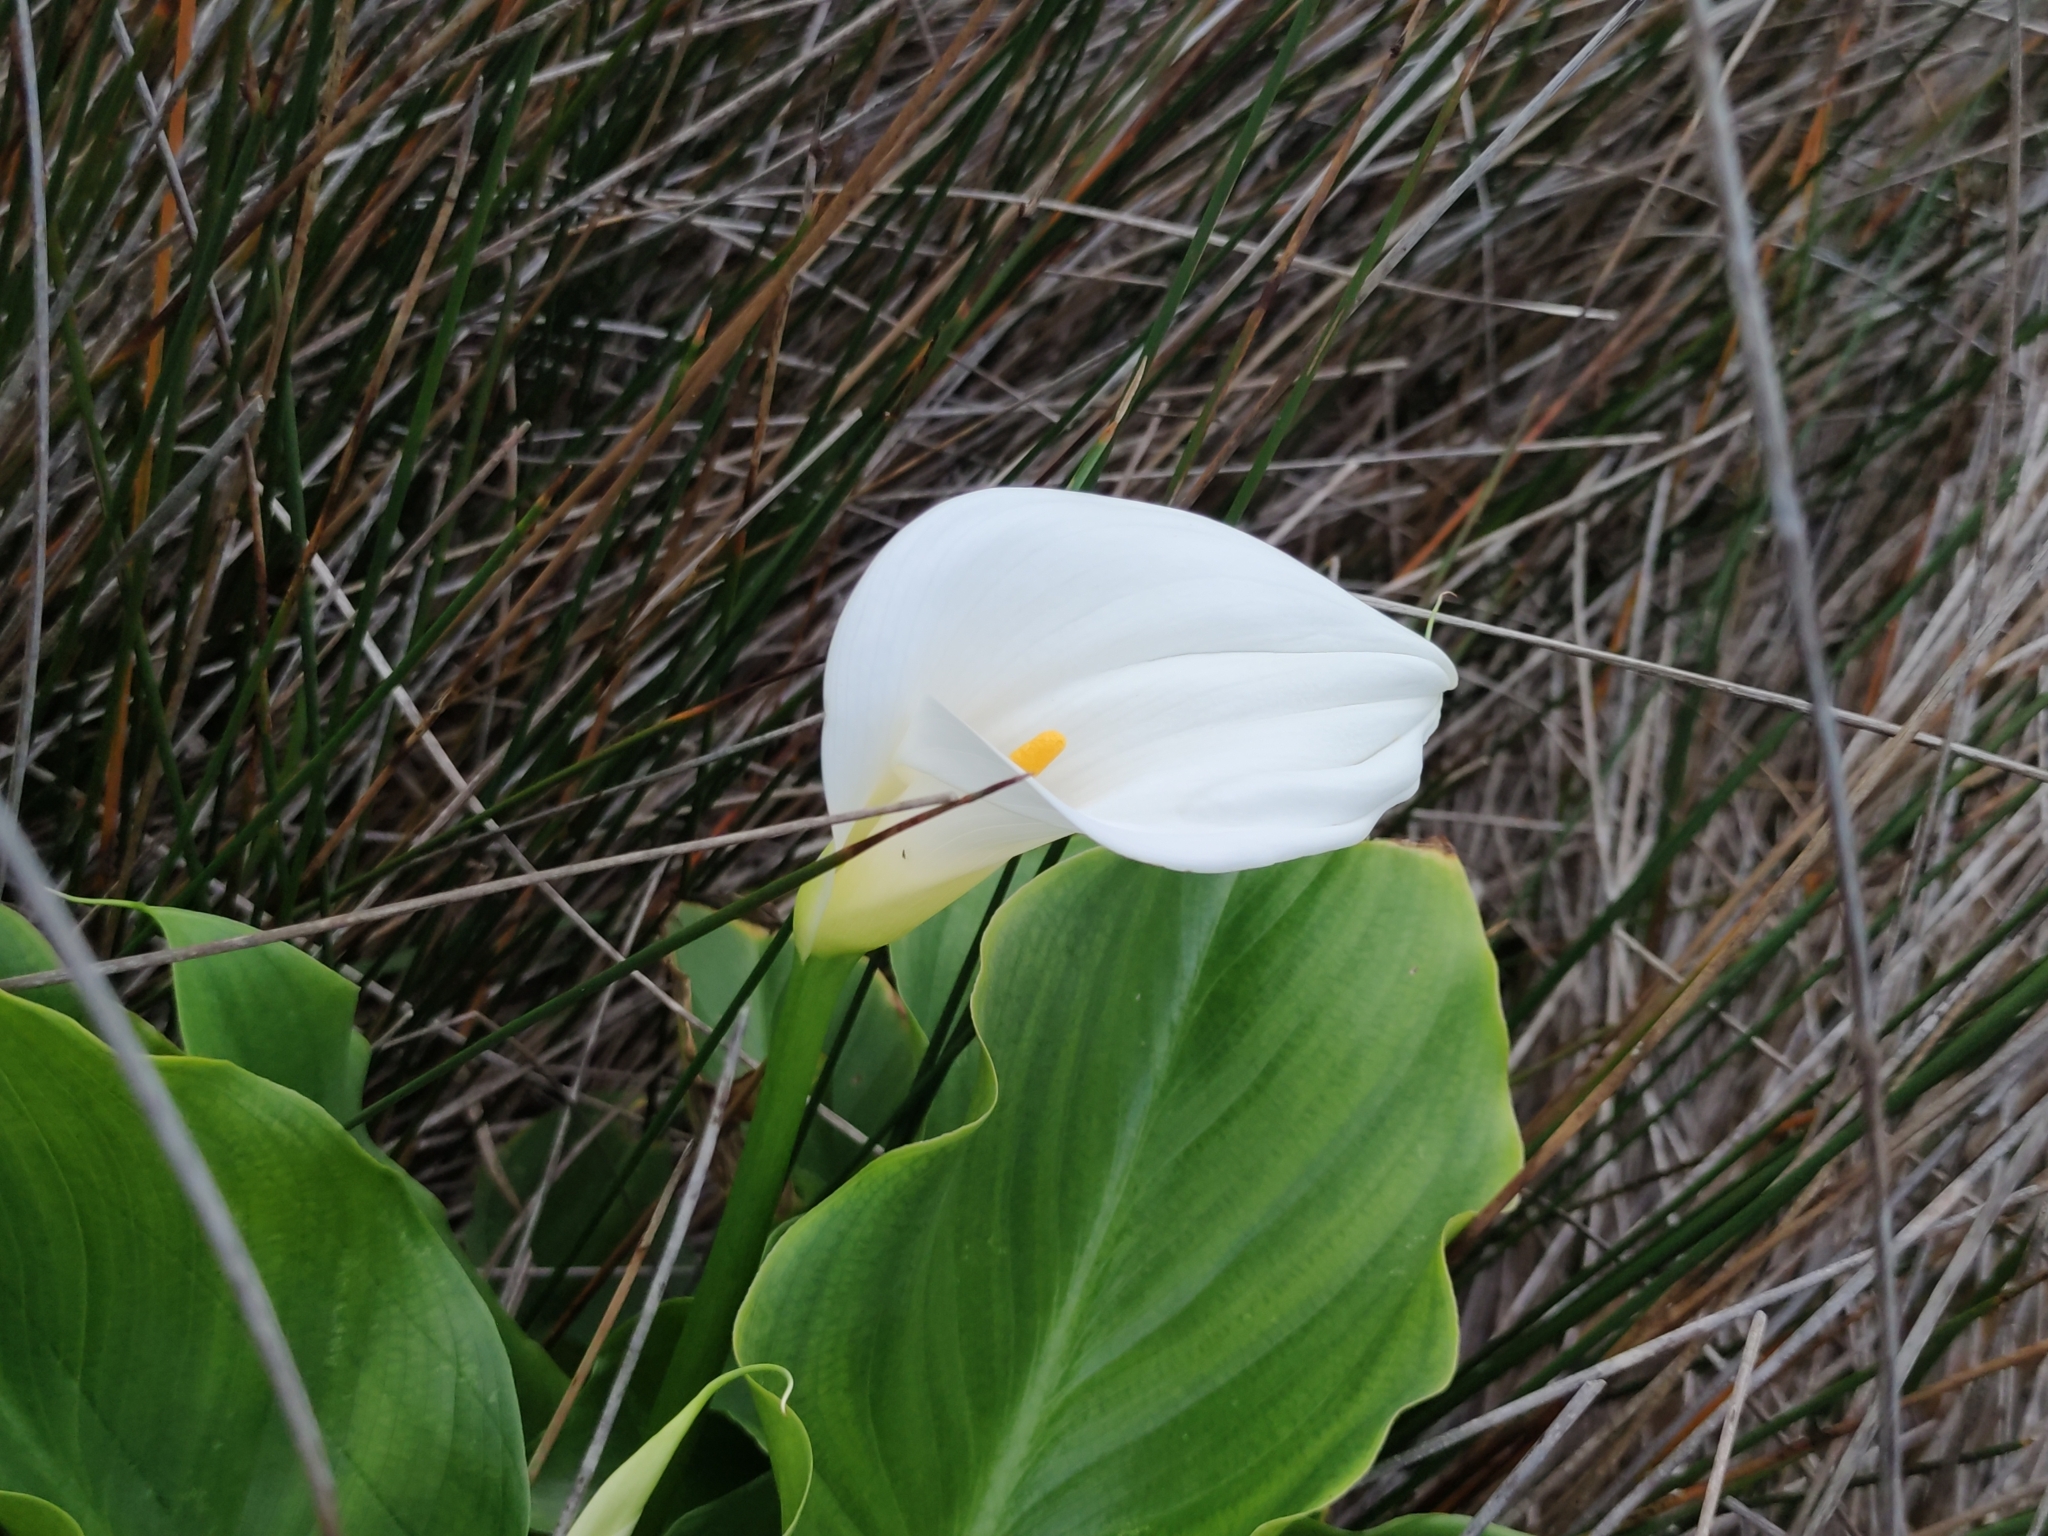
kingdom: Plantae
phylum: Tracheophyta
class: Liliopsida
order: Alismatales
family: Araceae
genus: Zantedeschia
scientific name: Zantedeschia aethiopica
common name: Altar-lily
